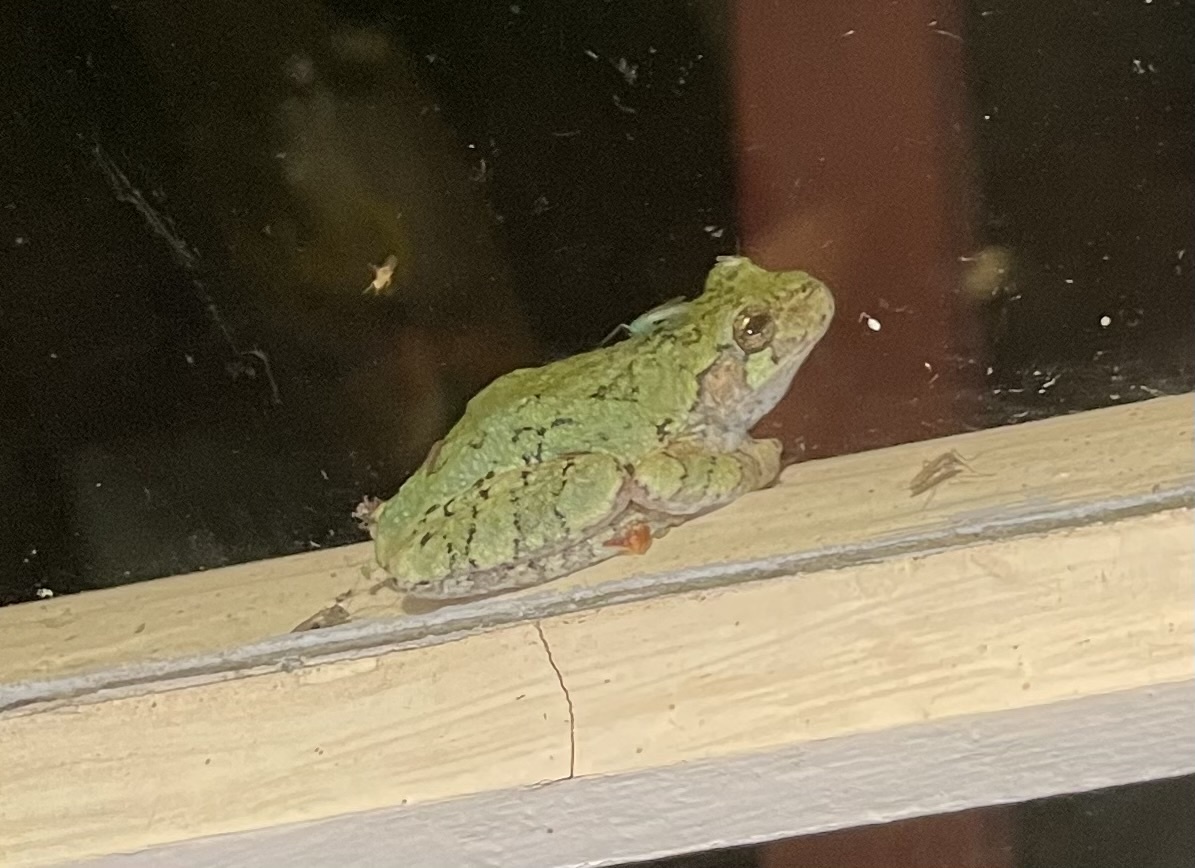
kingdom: Animalia
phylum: Chordata
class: Amphibia
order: Anura
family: Hylidae
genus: Dryophytes
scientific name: Dryophytes versicolor
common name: Gray treefrog
